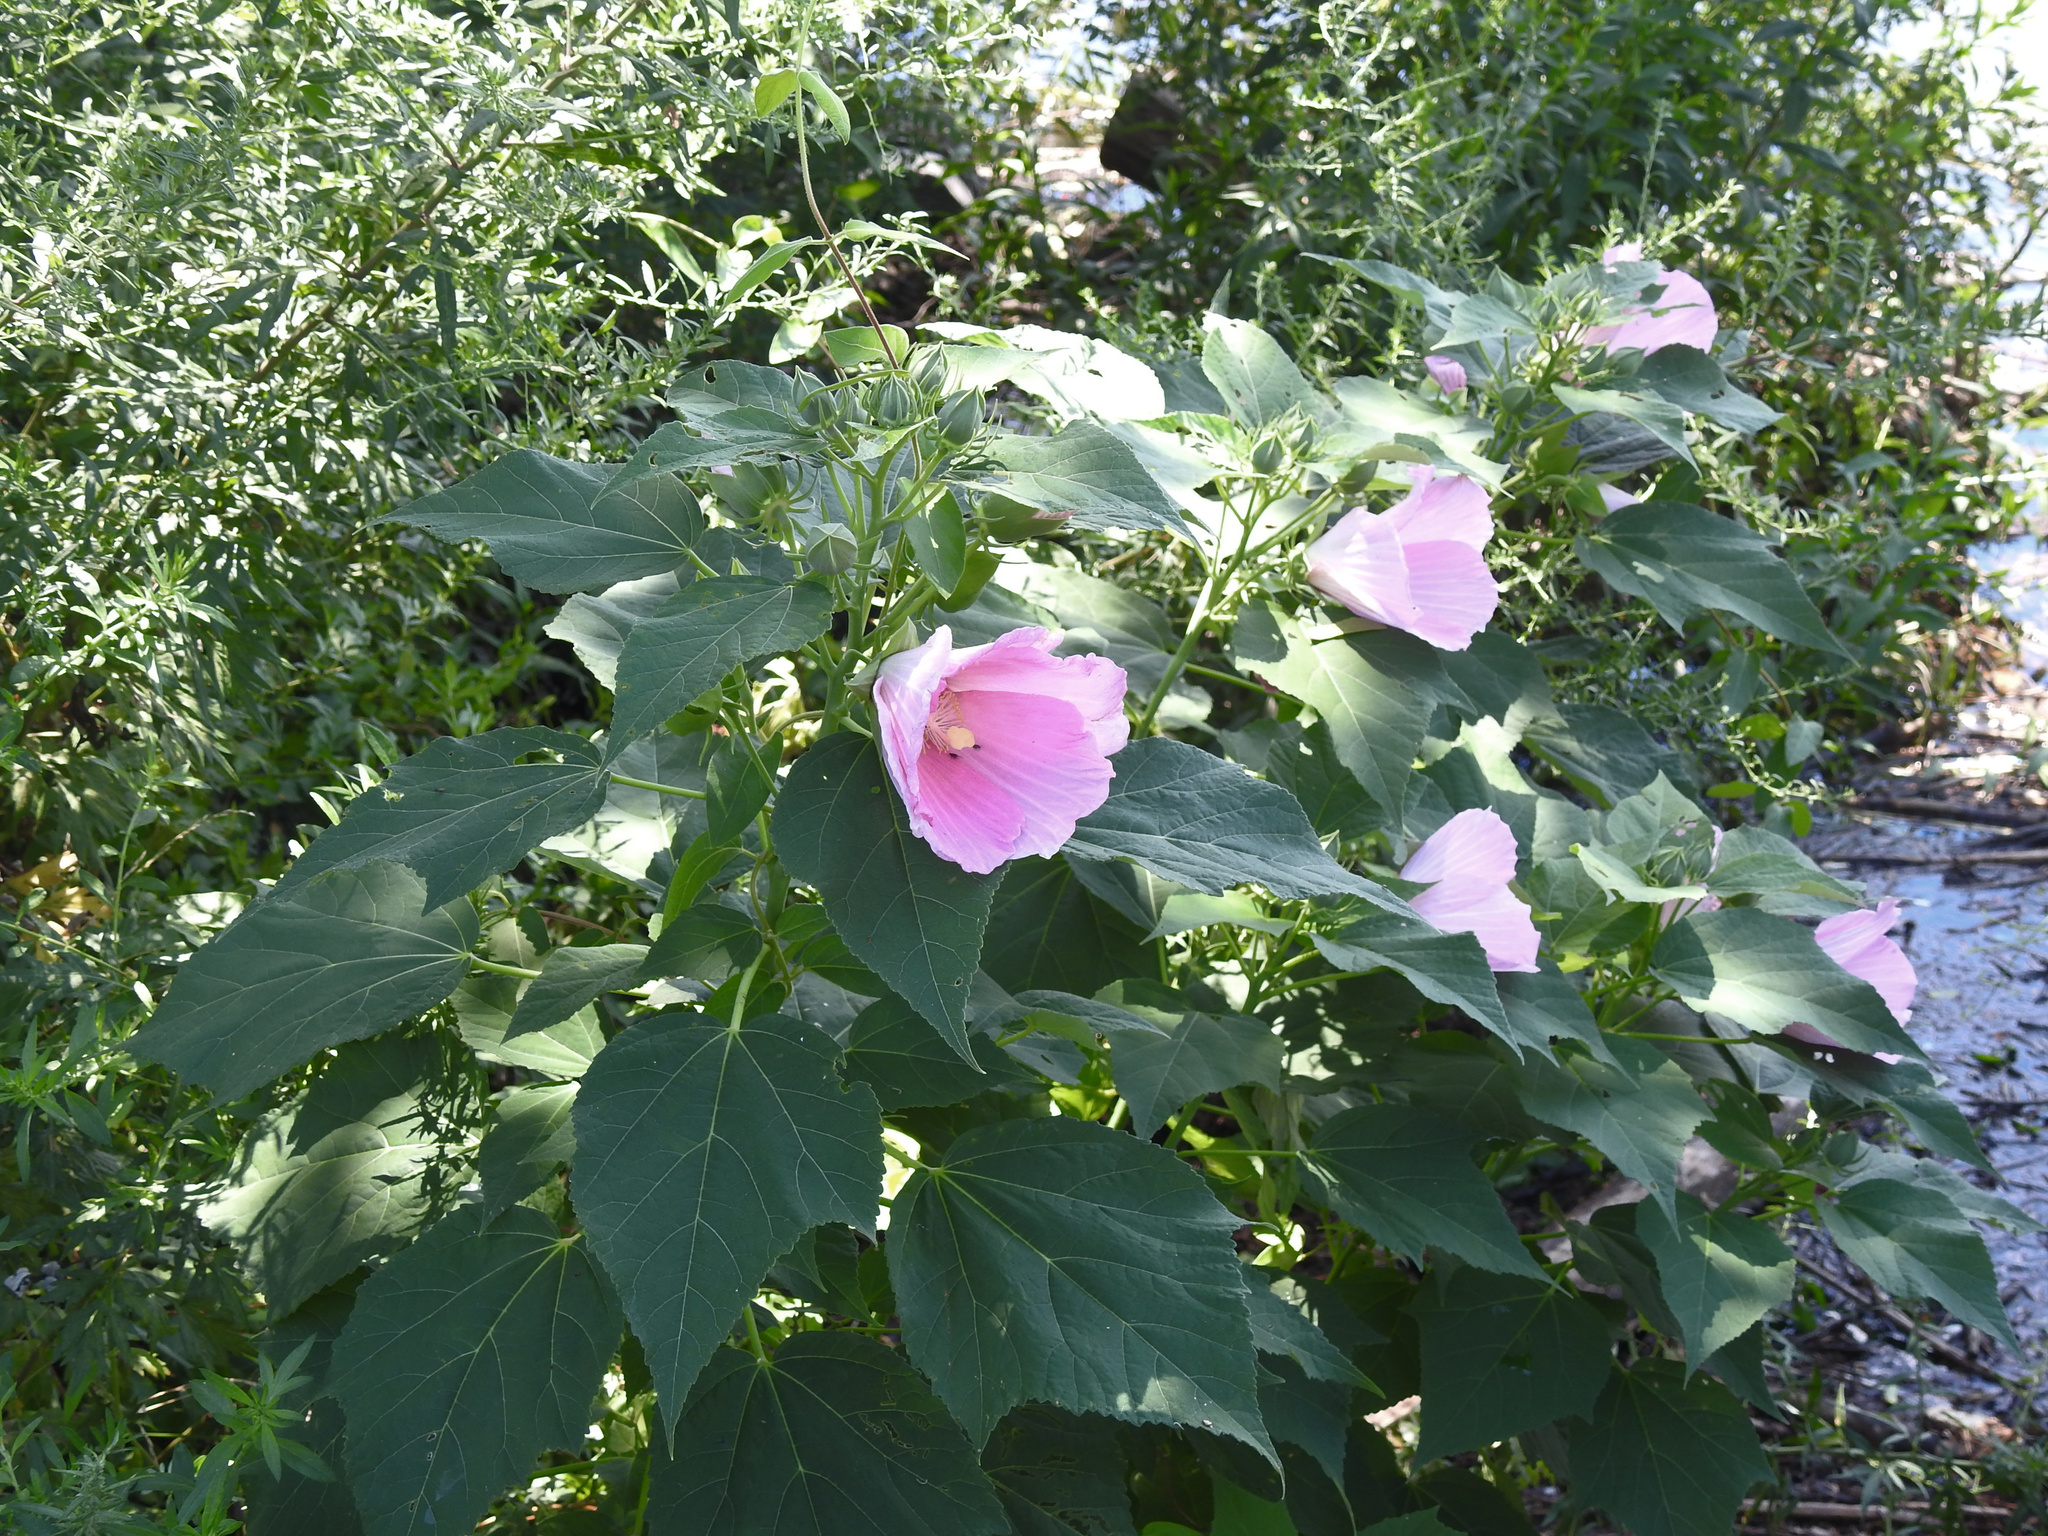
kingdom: Plantae
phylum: Tracheophyta
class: Magnoliopsida
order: Malvales
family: Malvaceae
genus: Hibiscus
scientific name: Hibiscus moscheutos
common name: Common rose-mallow
